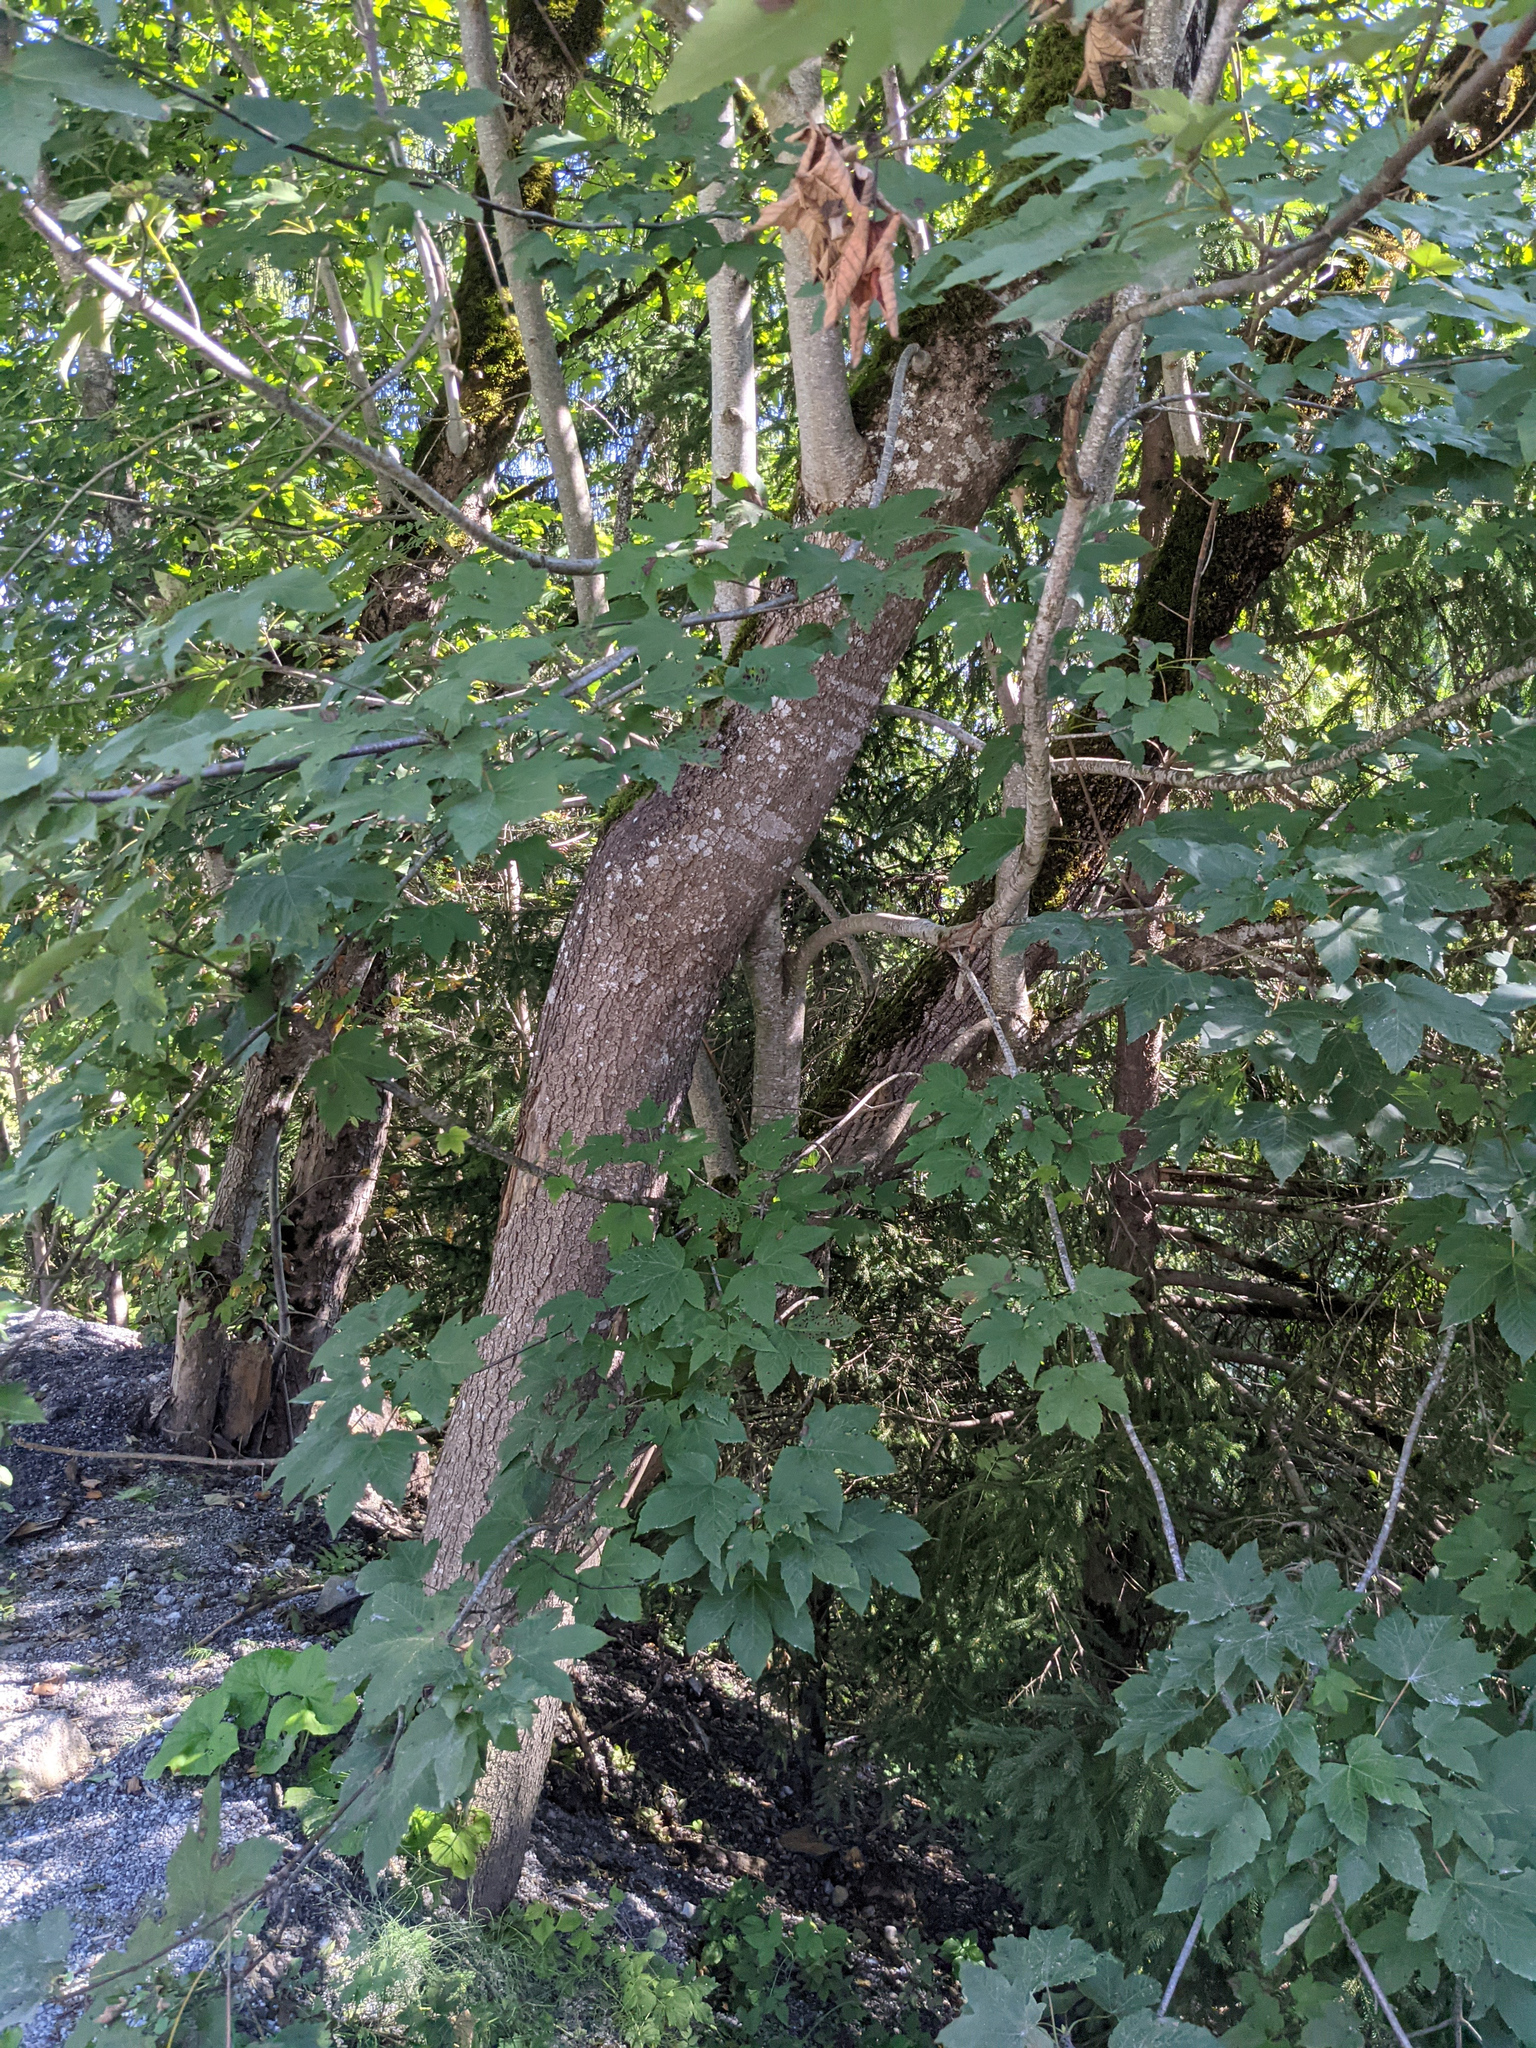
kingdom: Plantae
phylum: Tracheophyta
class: Magnoliopsida
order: Sapindales
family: Sapindaceae
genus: Acer
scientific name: Acer pseudoplatanus
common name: Sycamore
